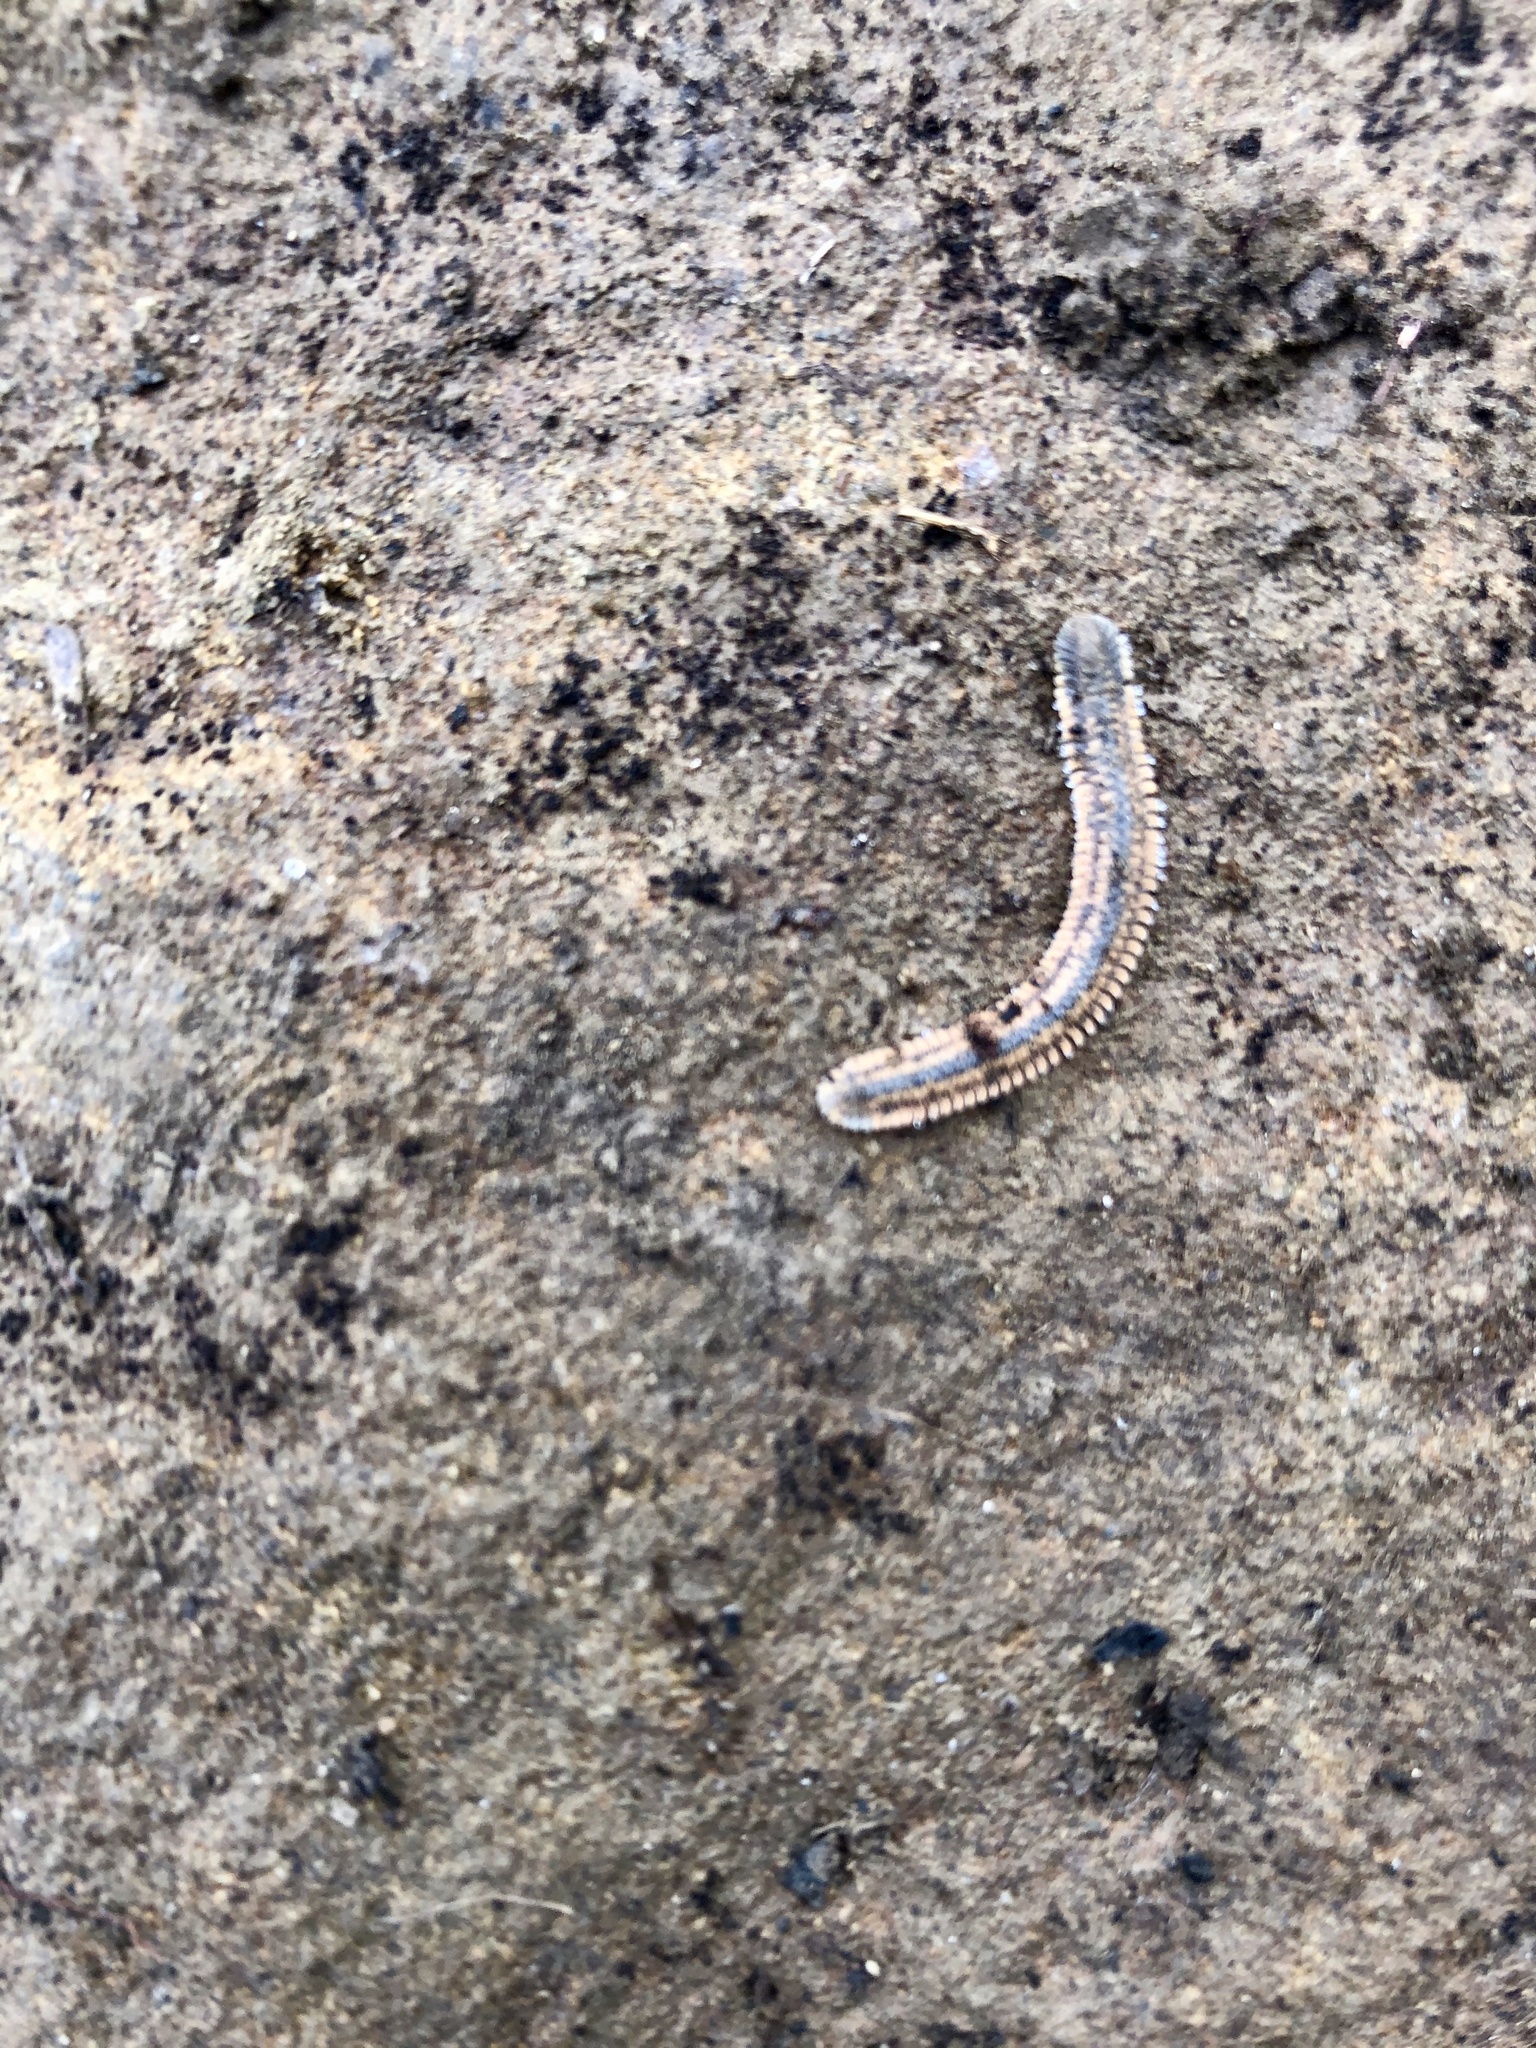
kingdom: Animalia
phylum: Arthropoda
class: Diplopoda
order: Platydesmida
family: Andrognathidae
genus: Brachycybe
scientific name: Brachycybe producta
